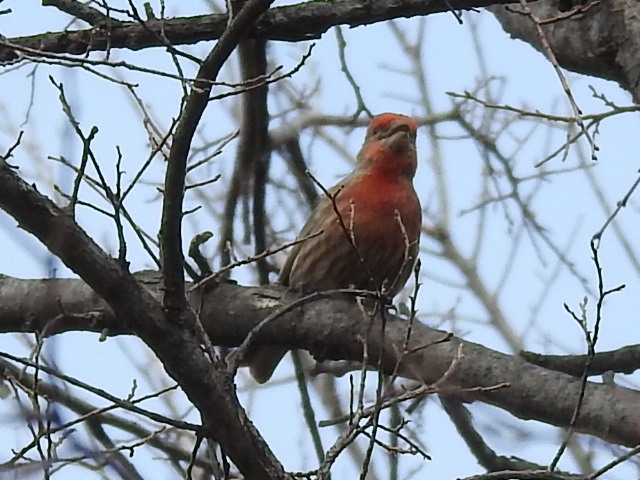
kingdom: Animalia
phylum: Chordata
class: Aves
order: Passeriformes
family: Fringillidae
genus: Haemorhous
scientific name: Haemorhous mexicanus
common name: House finch
